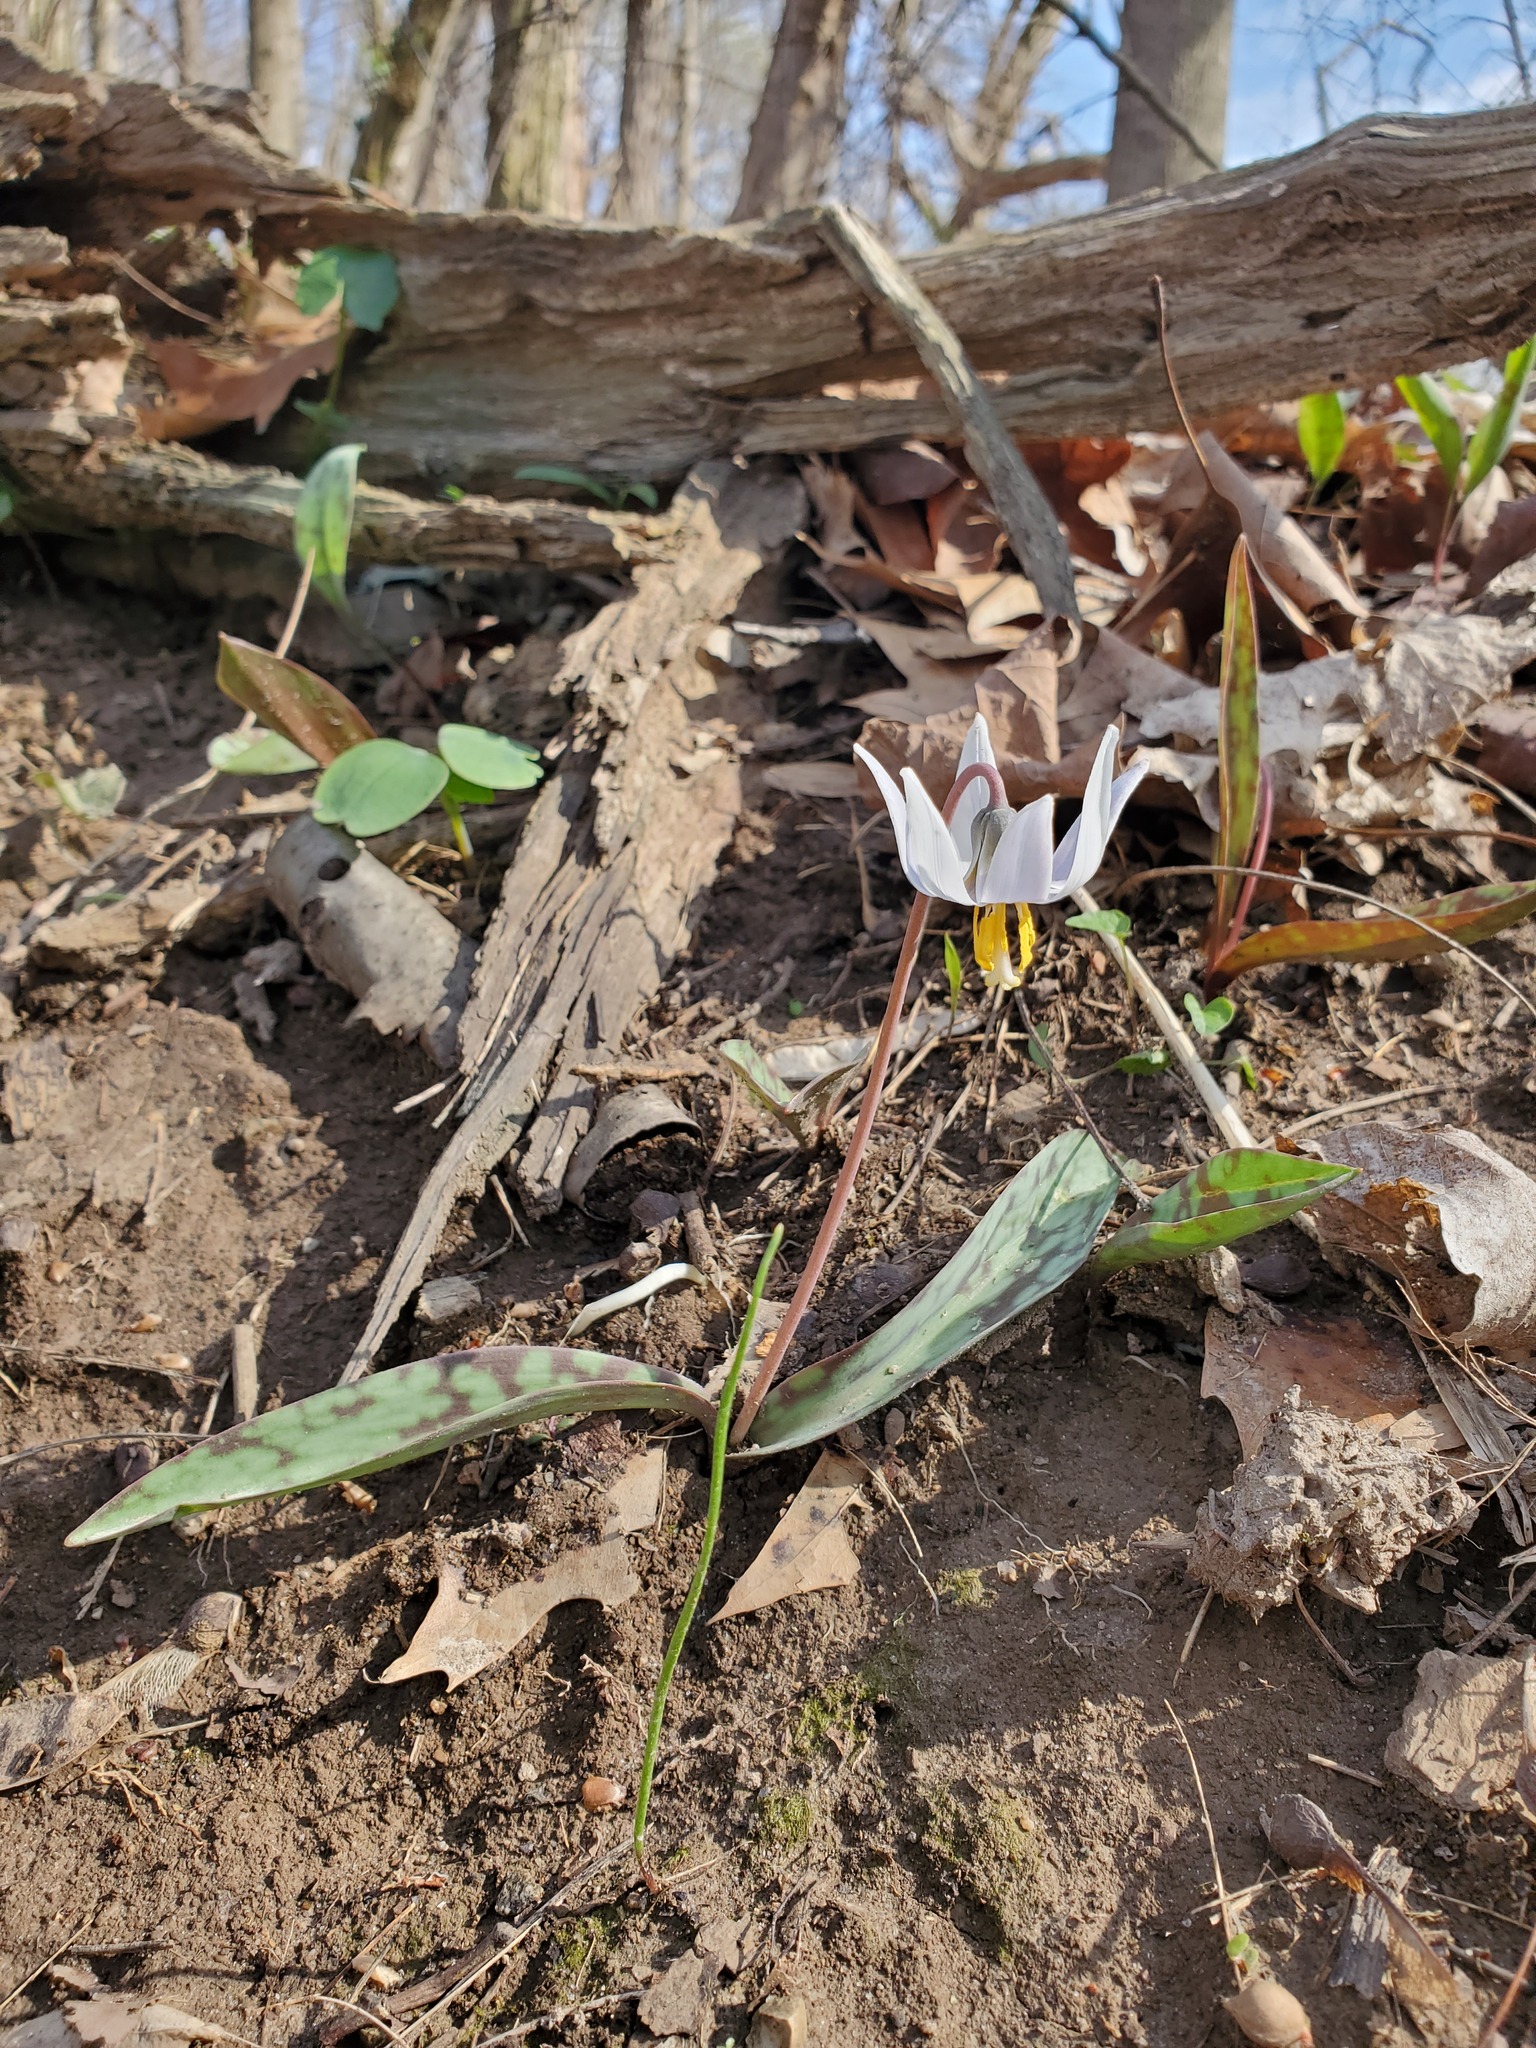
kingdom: Plantae
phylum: Tracheophyta
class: Liliopsida
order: Liliales
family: Liliaceae
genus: Erythronium
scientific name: Erythronium albidum
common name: White trout-lily
